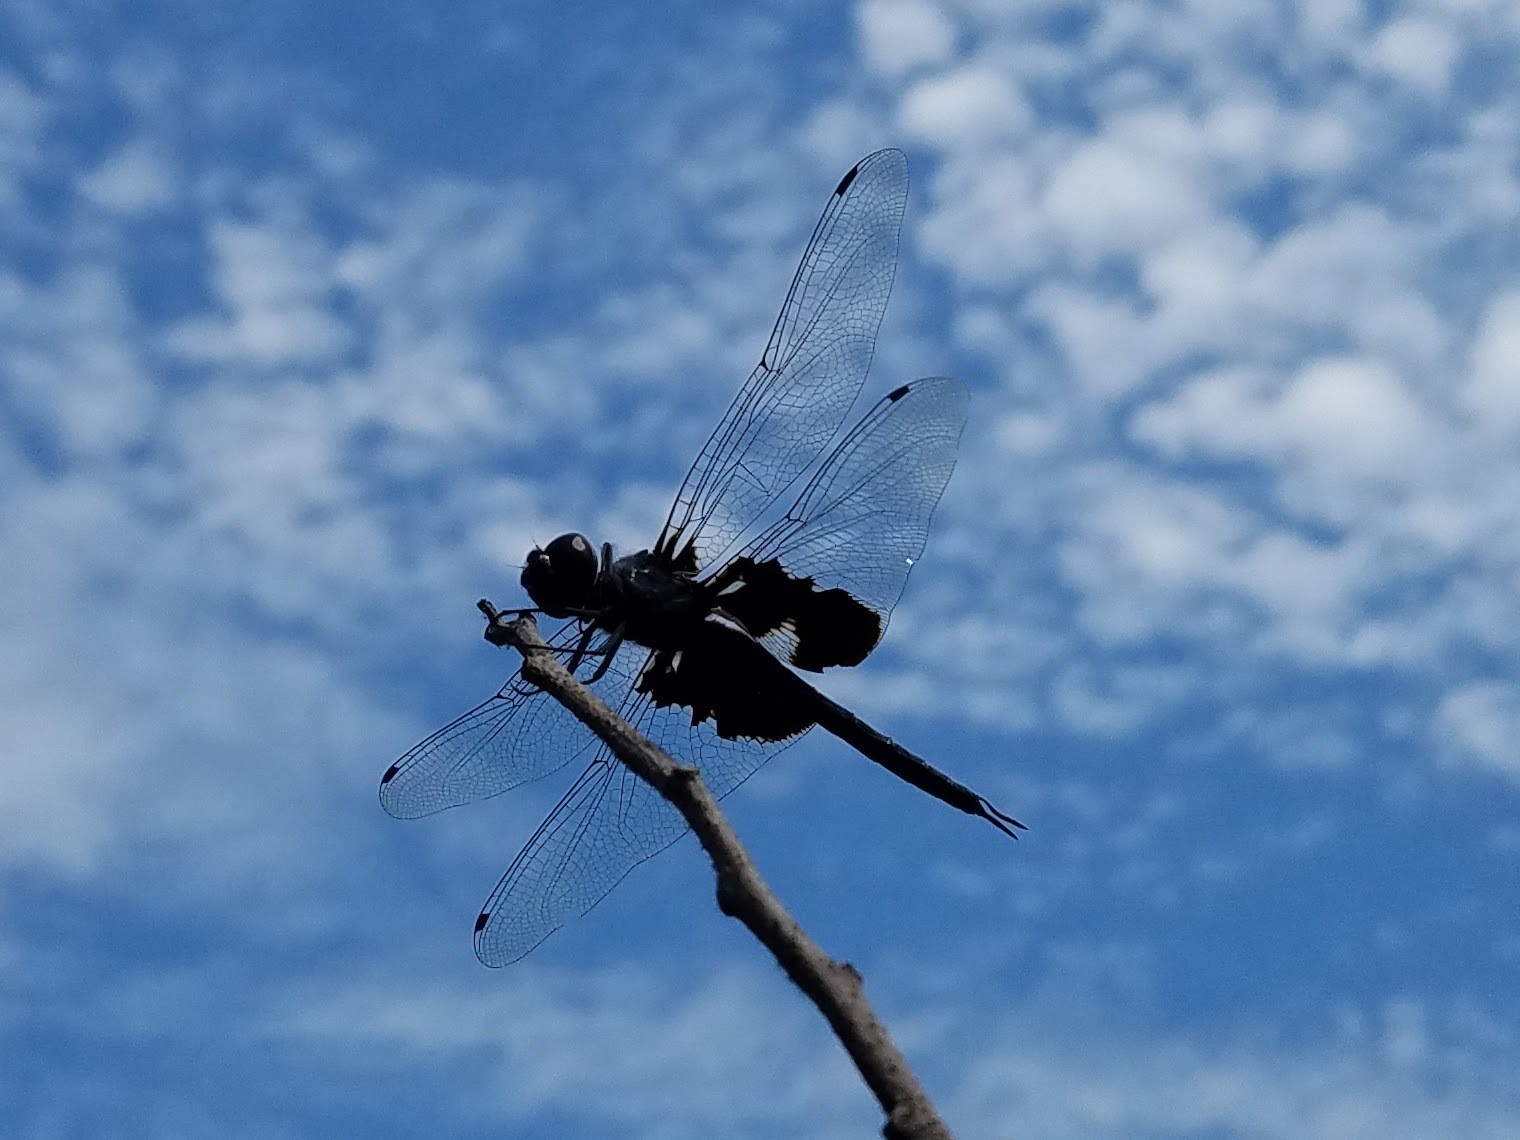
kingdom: Animalia
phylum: Arthropoda
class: Insecta
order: Odonata
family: Libellulidae
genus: Tramea
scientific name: Tramea lacerata
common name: Black saddlebags
